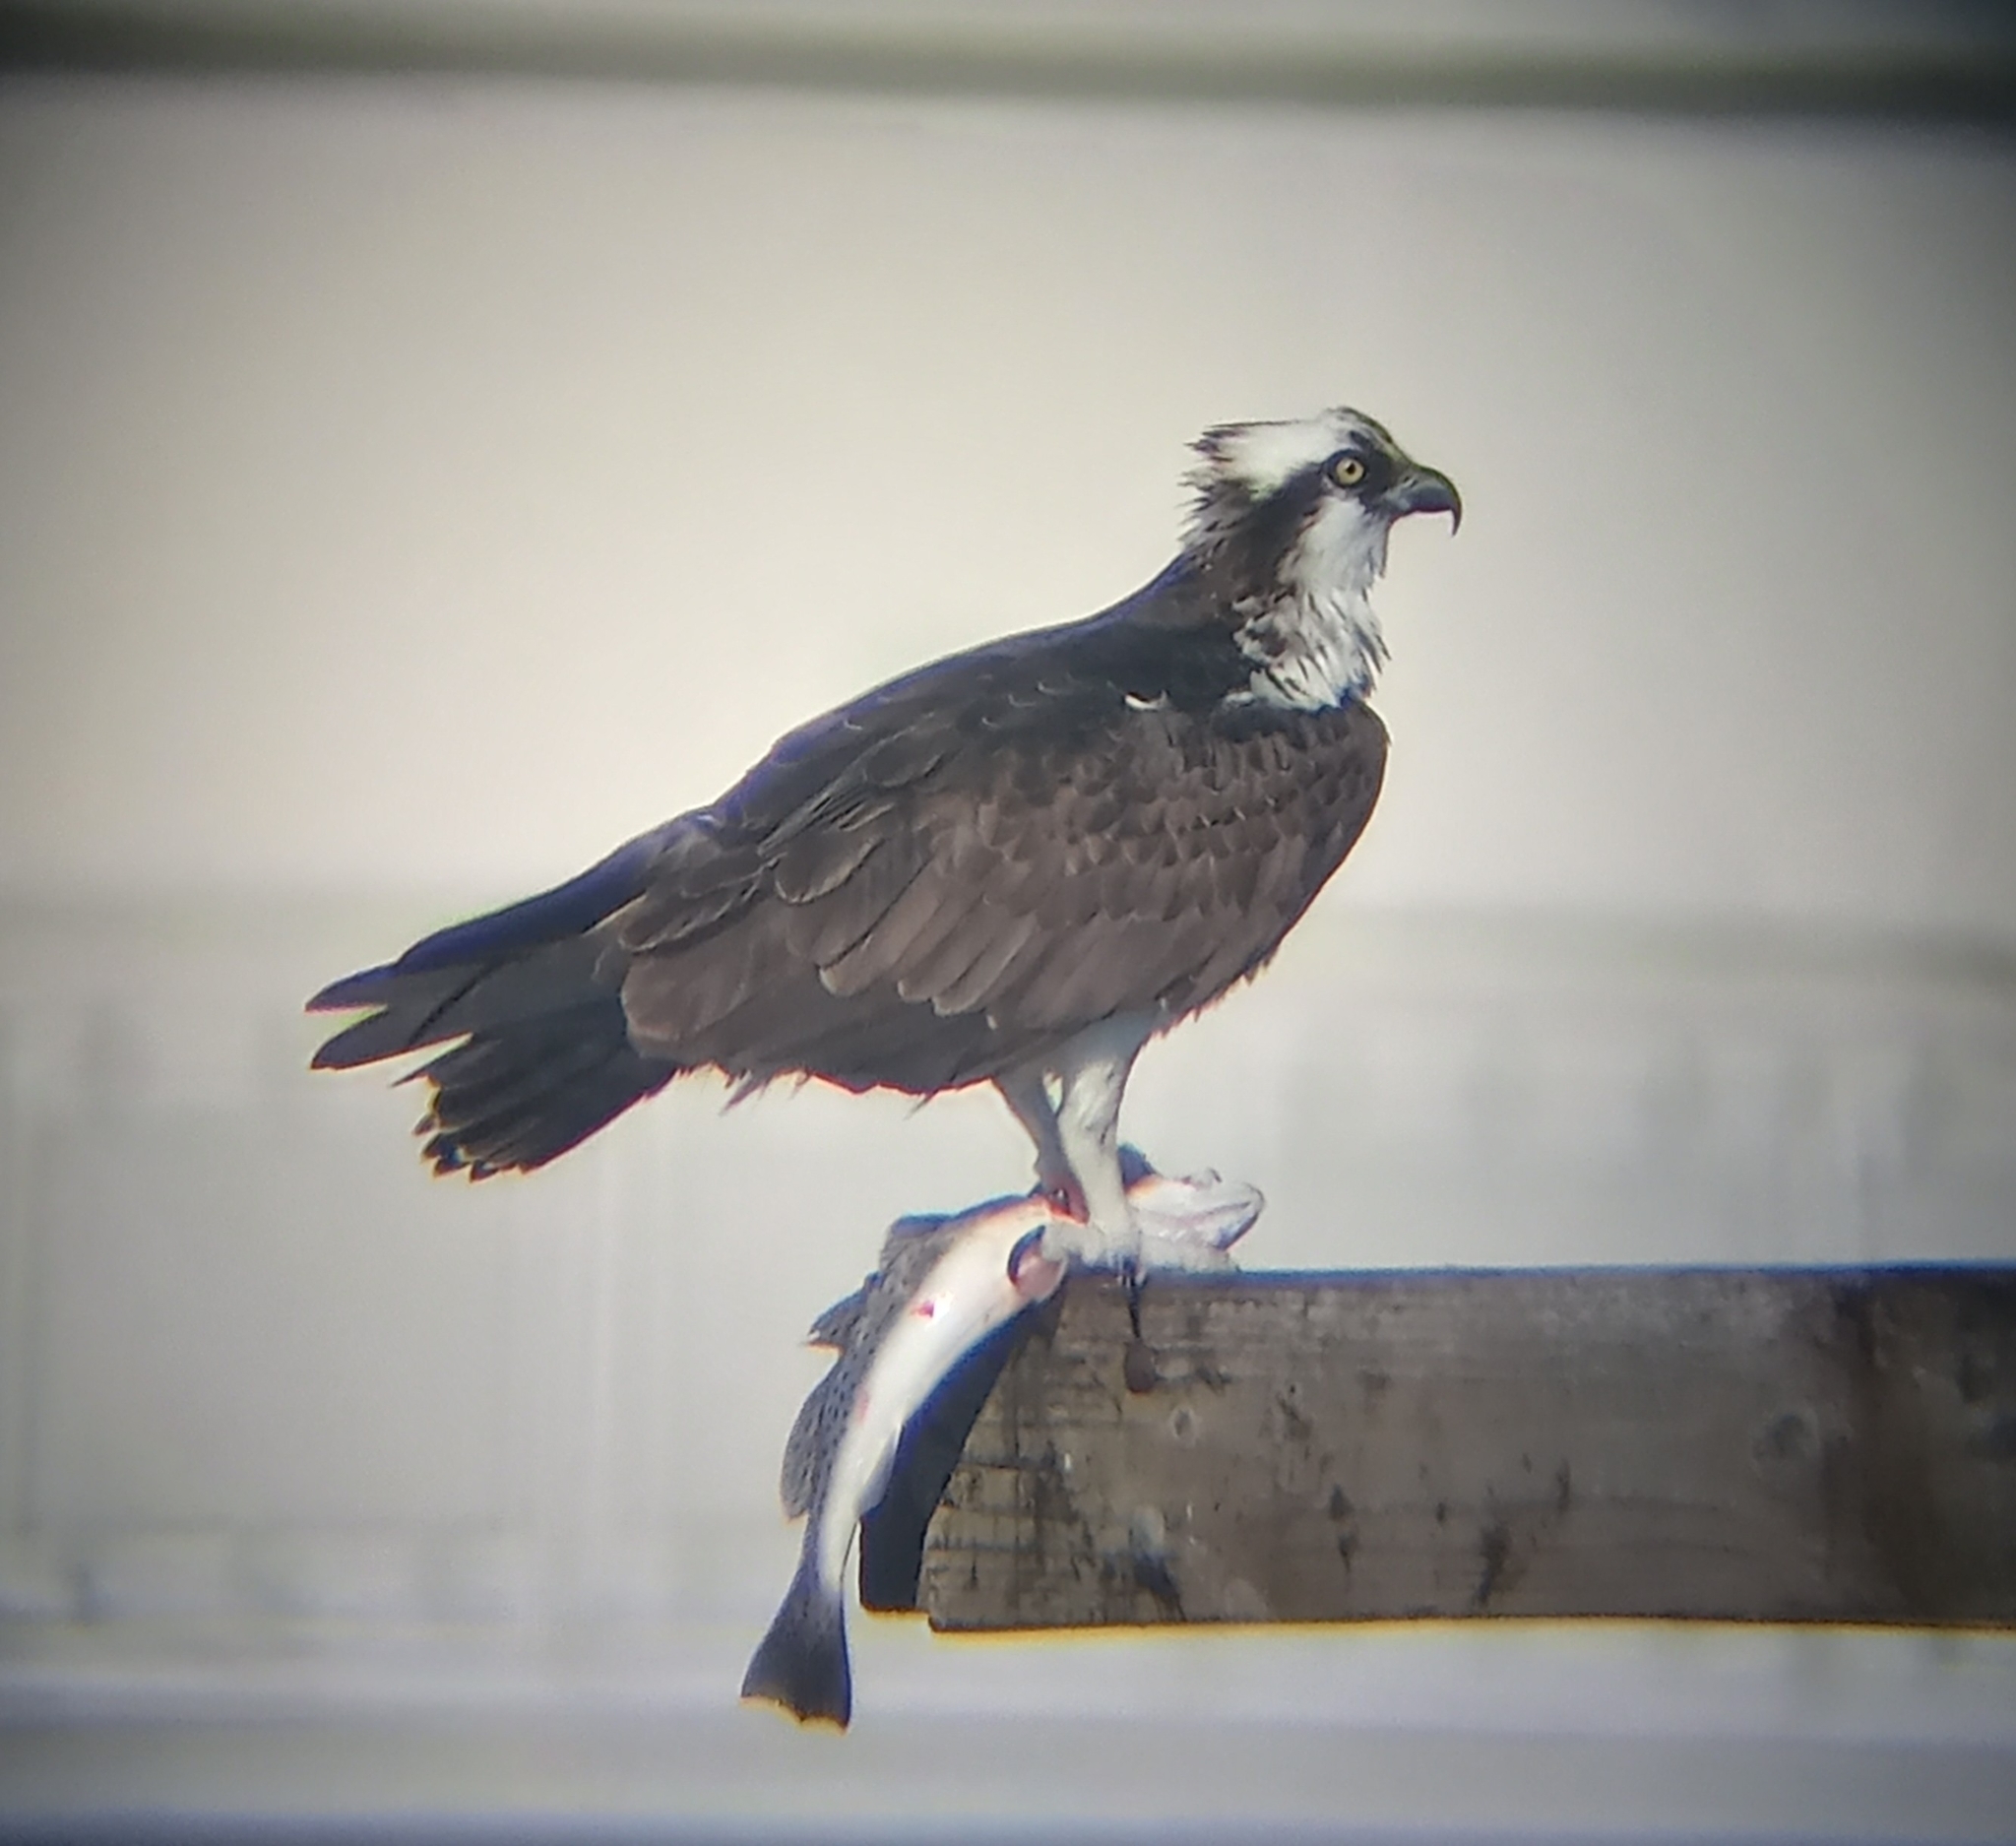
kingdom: Animalia
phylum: Chordata
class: Aves
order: Accipitriformes
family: Pandionidae
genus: Pandion
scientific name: Pandion haliaetus
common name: Osprey
